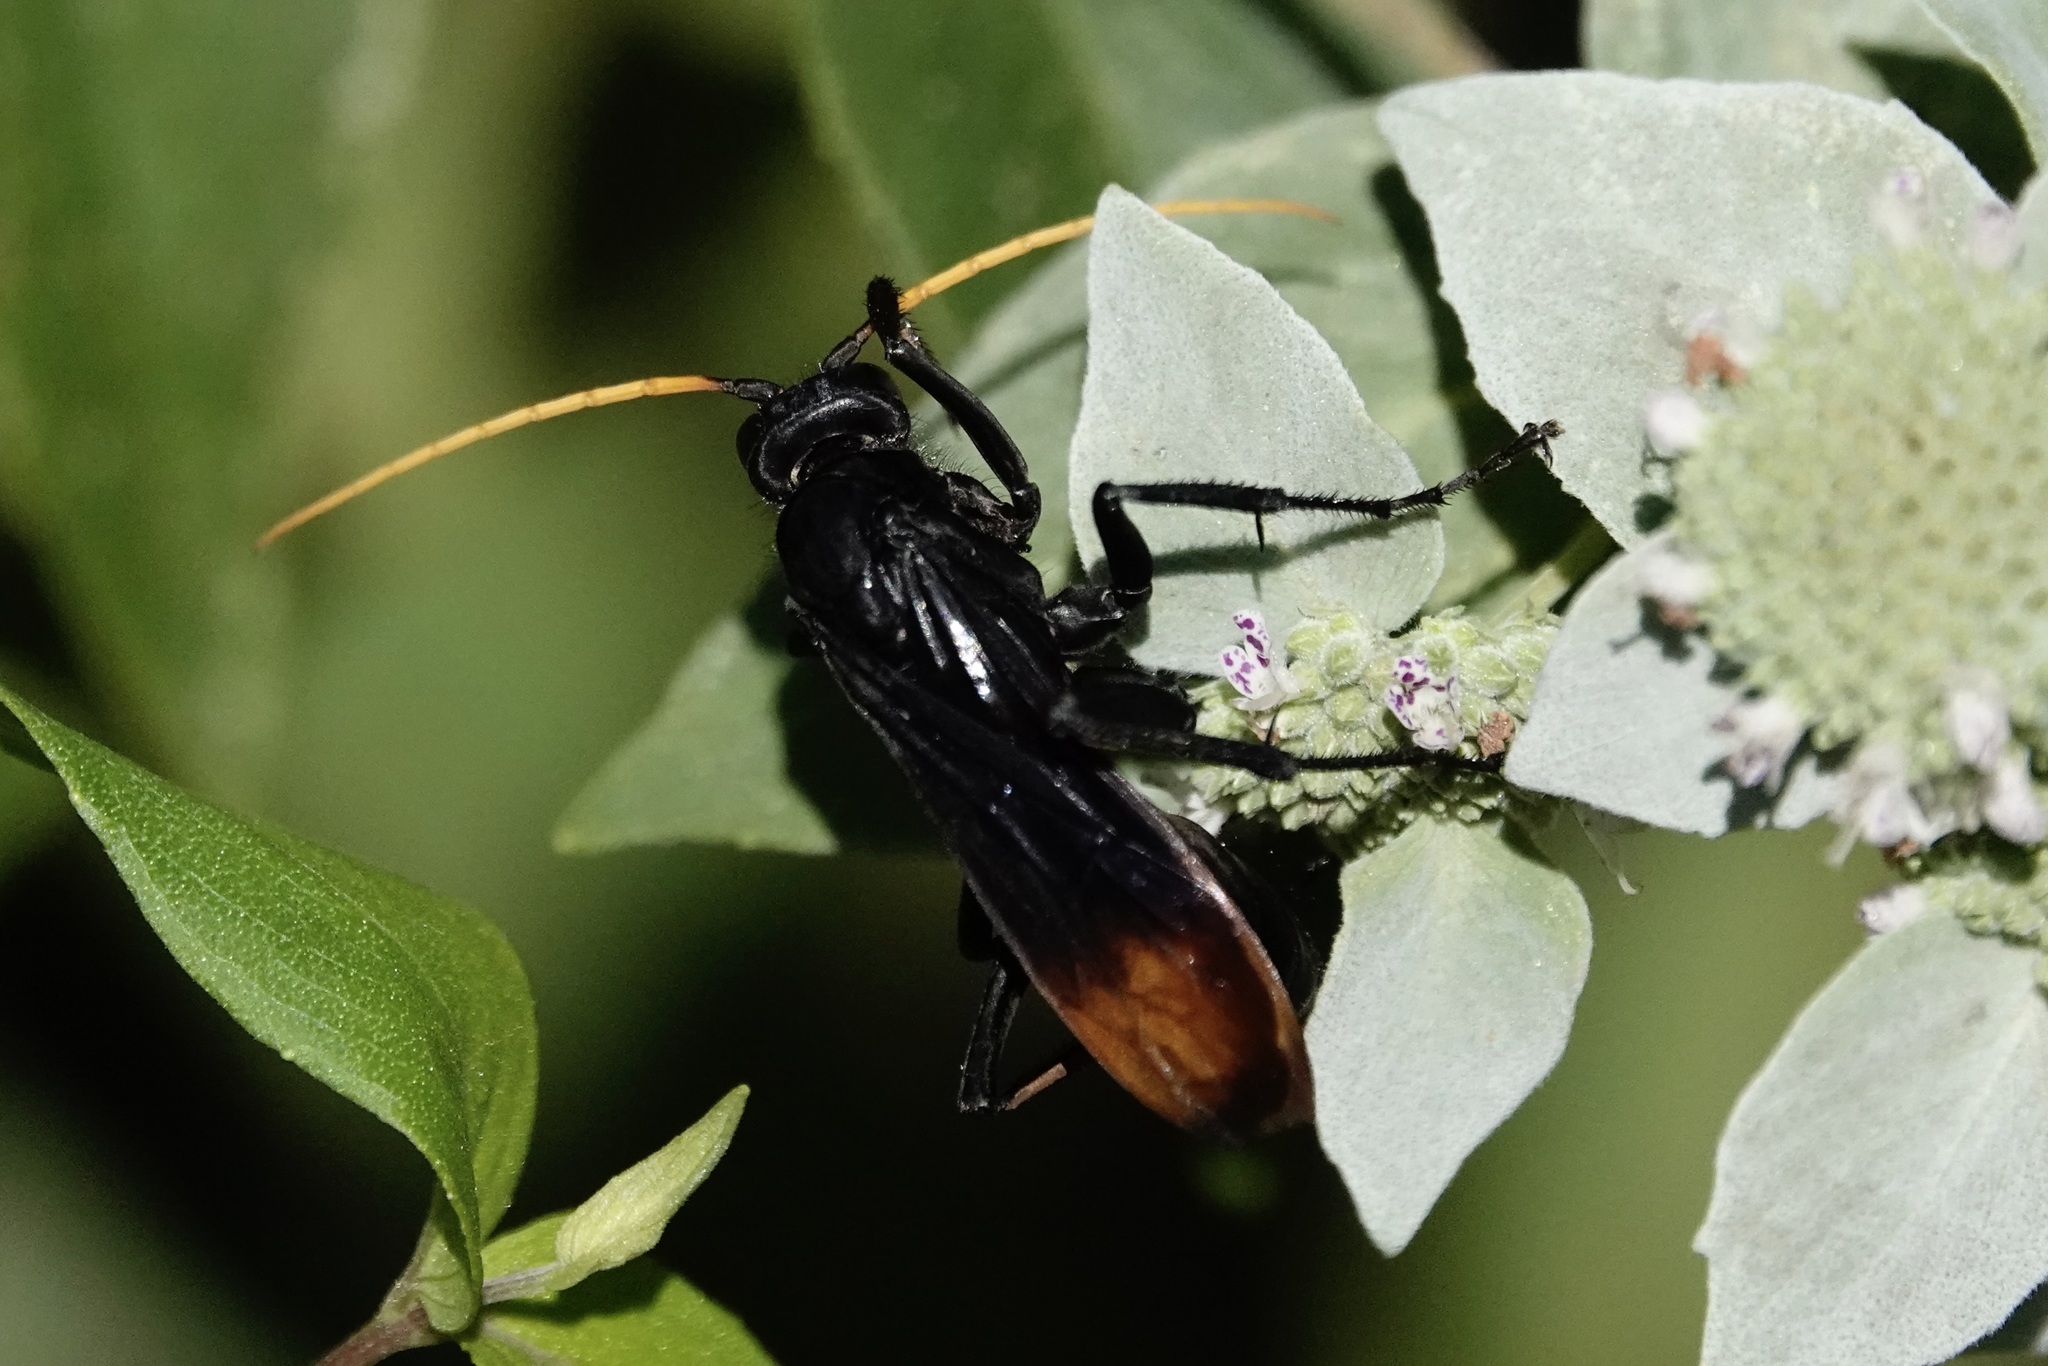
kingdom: Animalia
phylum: Arthropoda
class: Insecta
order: Hymenoptera
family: Pompilidae
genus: Entypus
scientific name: Entypus unifasciatus
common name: Eastern tawny-horned spider wasp
